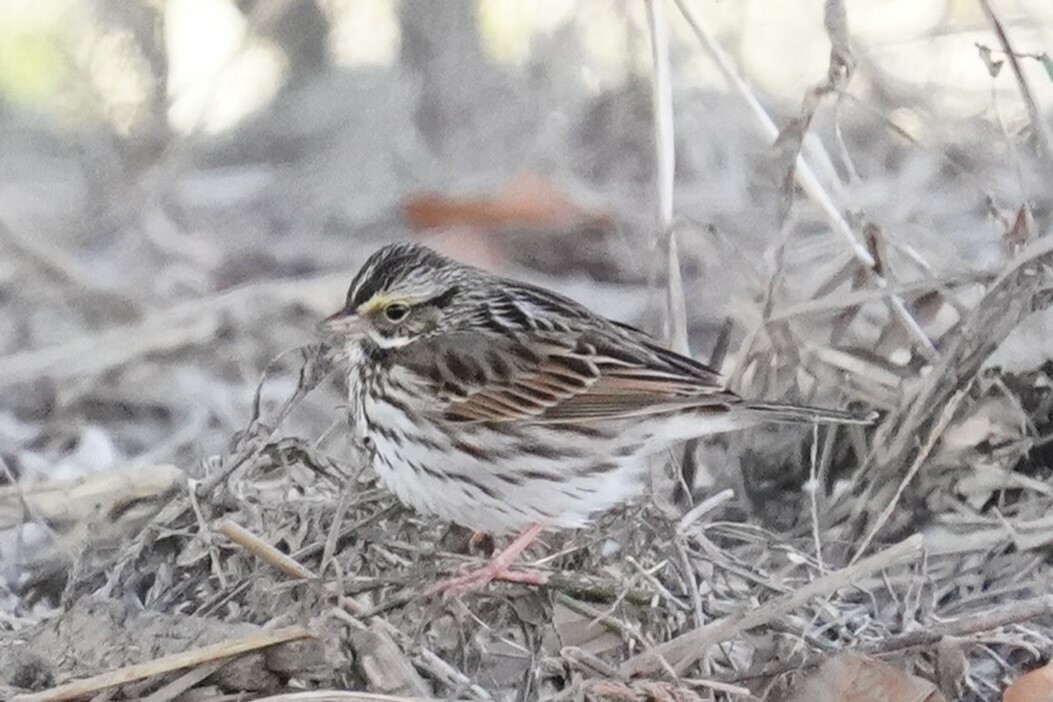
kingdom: Animalia
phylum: Chordata
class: Aves
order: Passeriformes
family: Passerellidae
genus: Passerculus
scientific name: Passerculus sandwichensis
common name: Savannah sparrow
